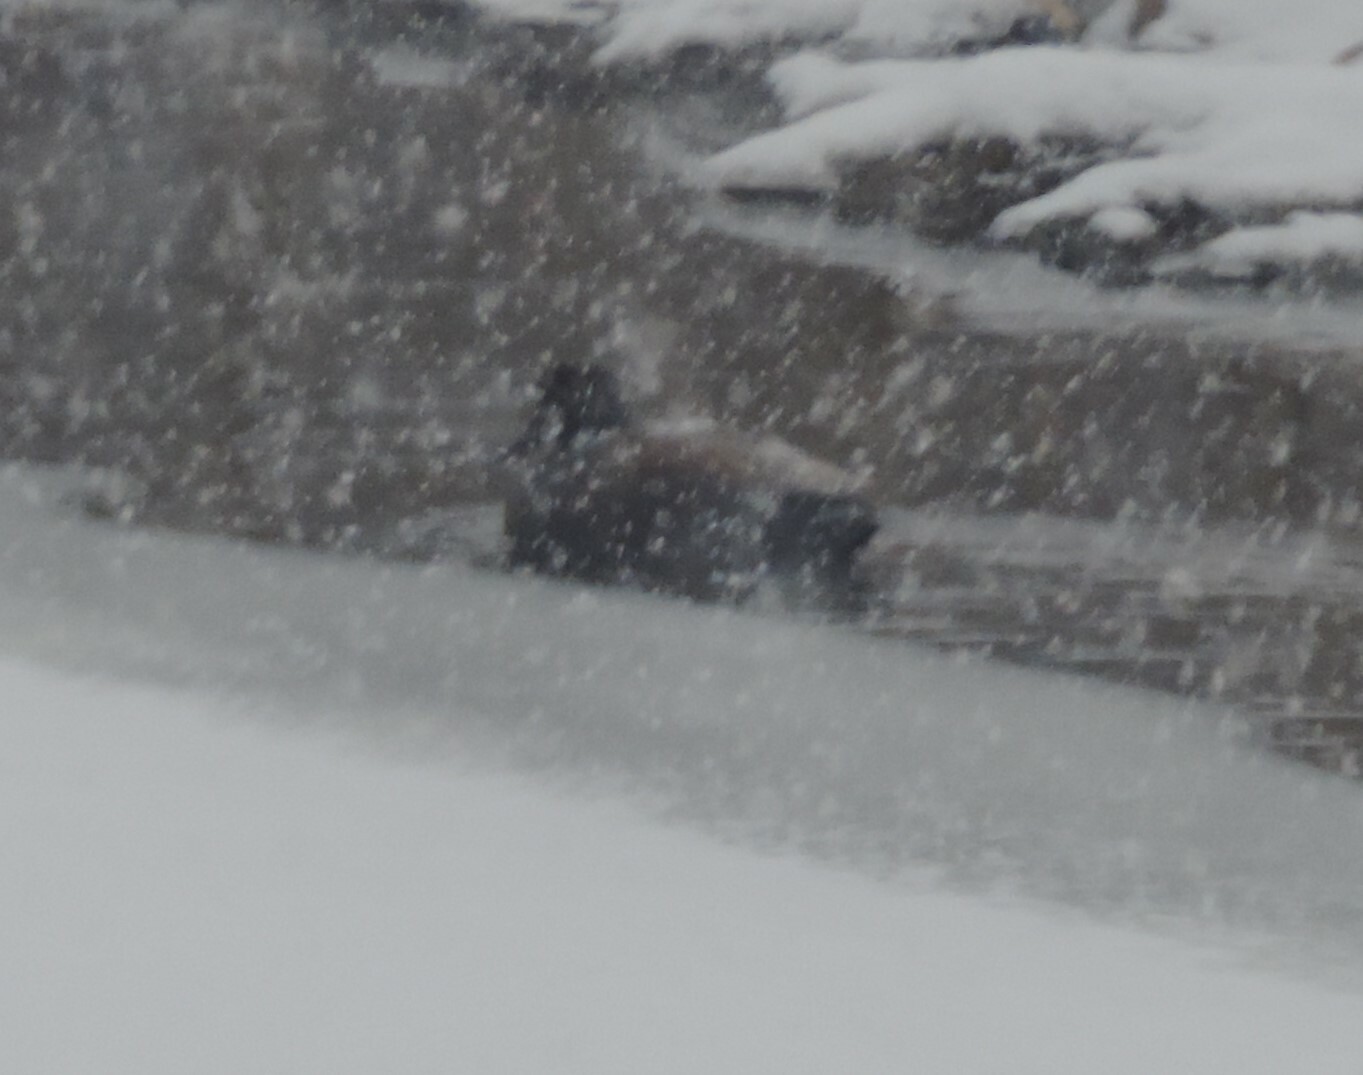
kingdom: Animalia
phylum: Chordata
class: Aves
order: Anseriformes
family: Anatidae
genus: Mareca
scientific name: Mareca strepera
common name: Gadwall
